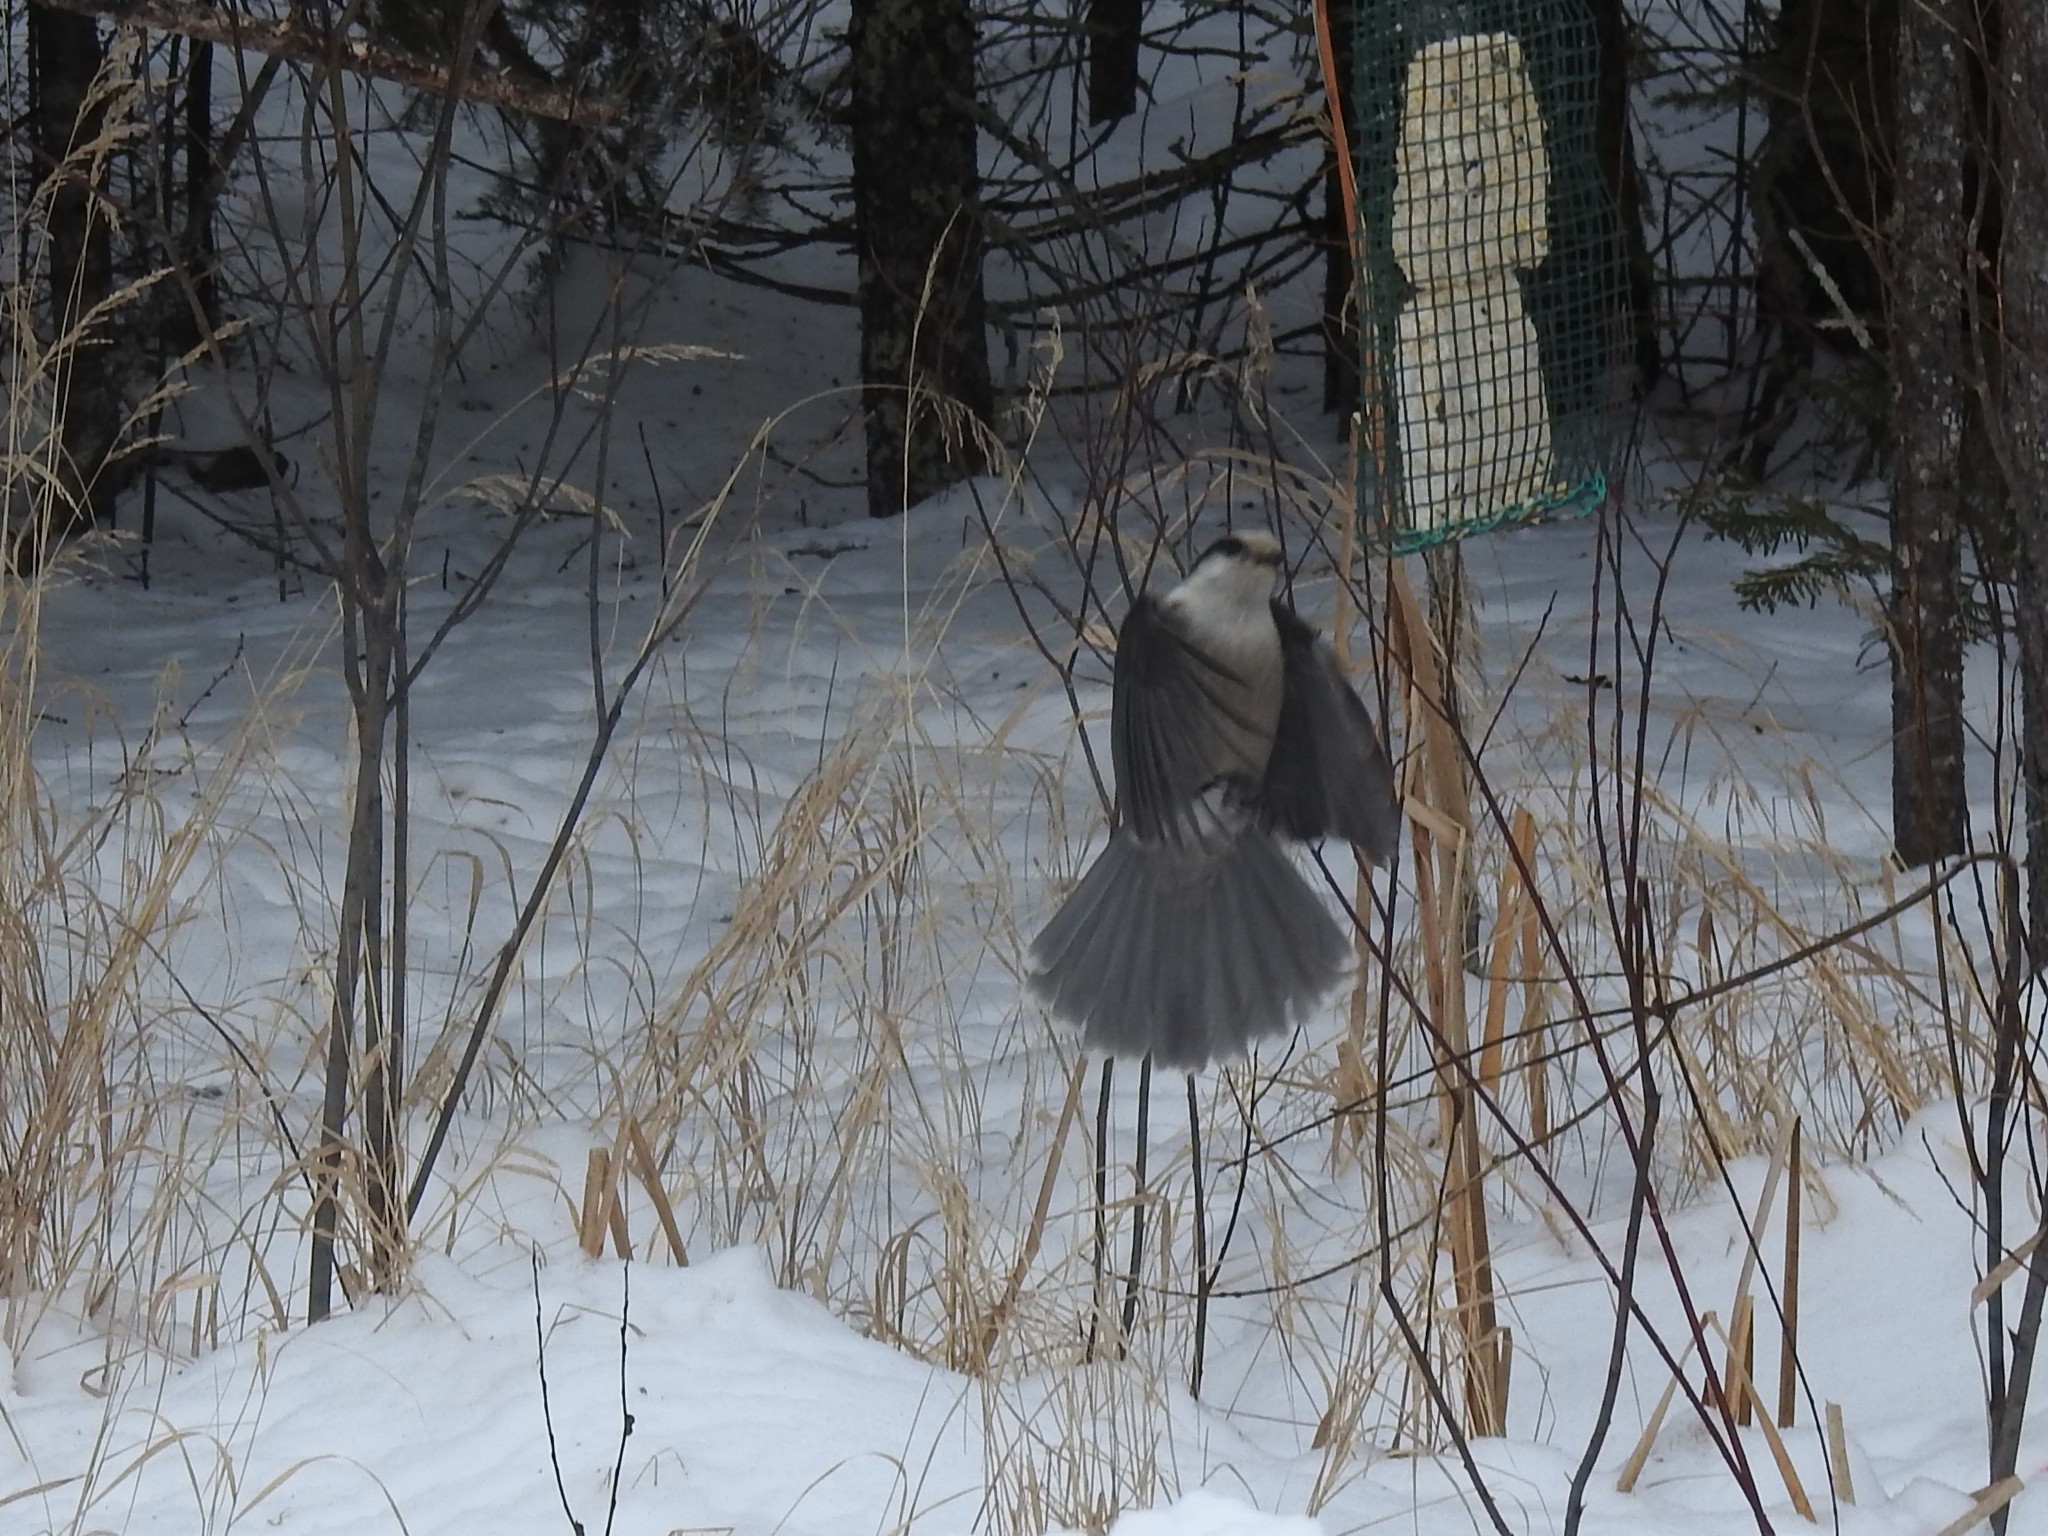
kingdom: Animalia
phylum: Chordata
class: Aves
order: Passeriformes
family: Corvidae
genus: Perisoreus
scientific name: Perisoreus canadensis
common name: Gray jay
